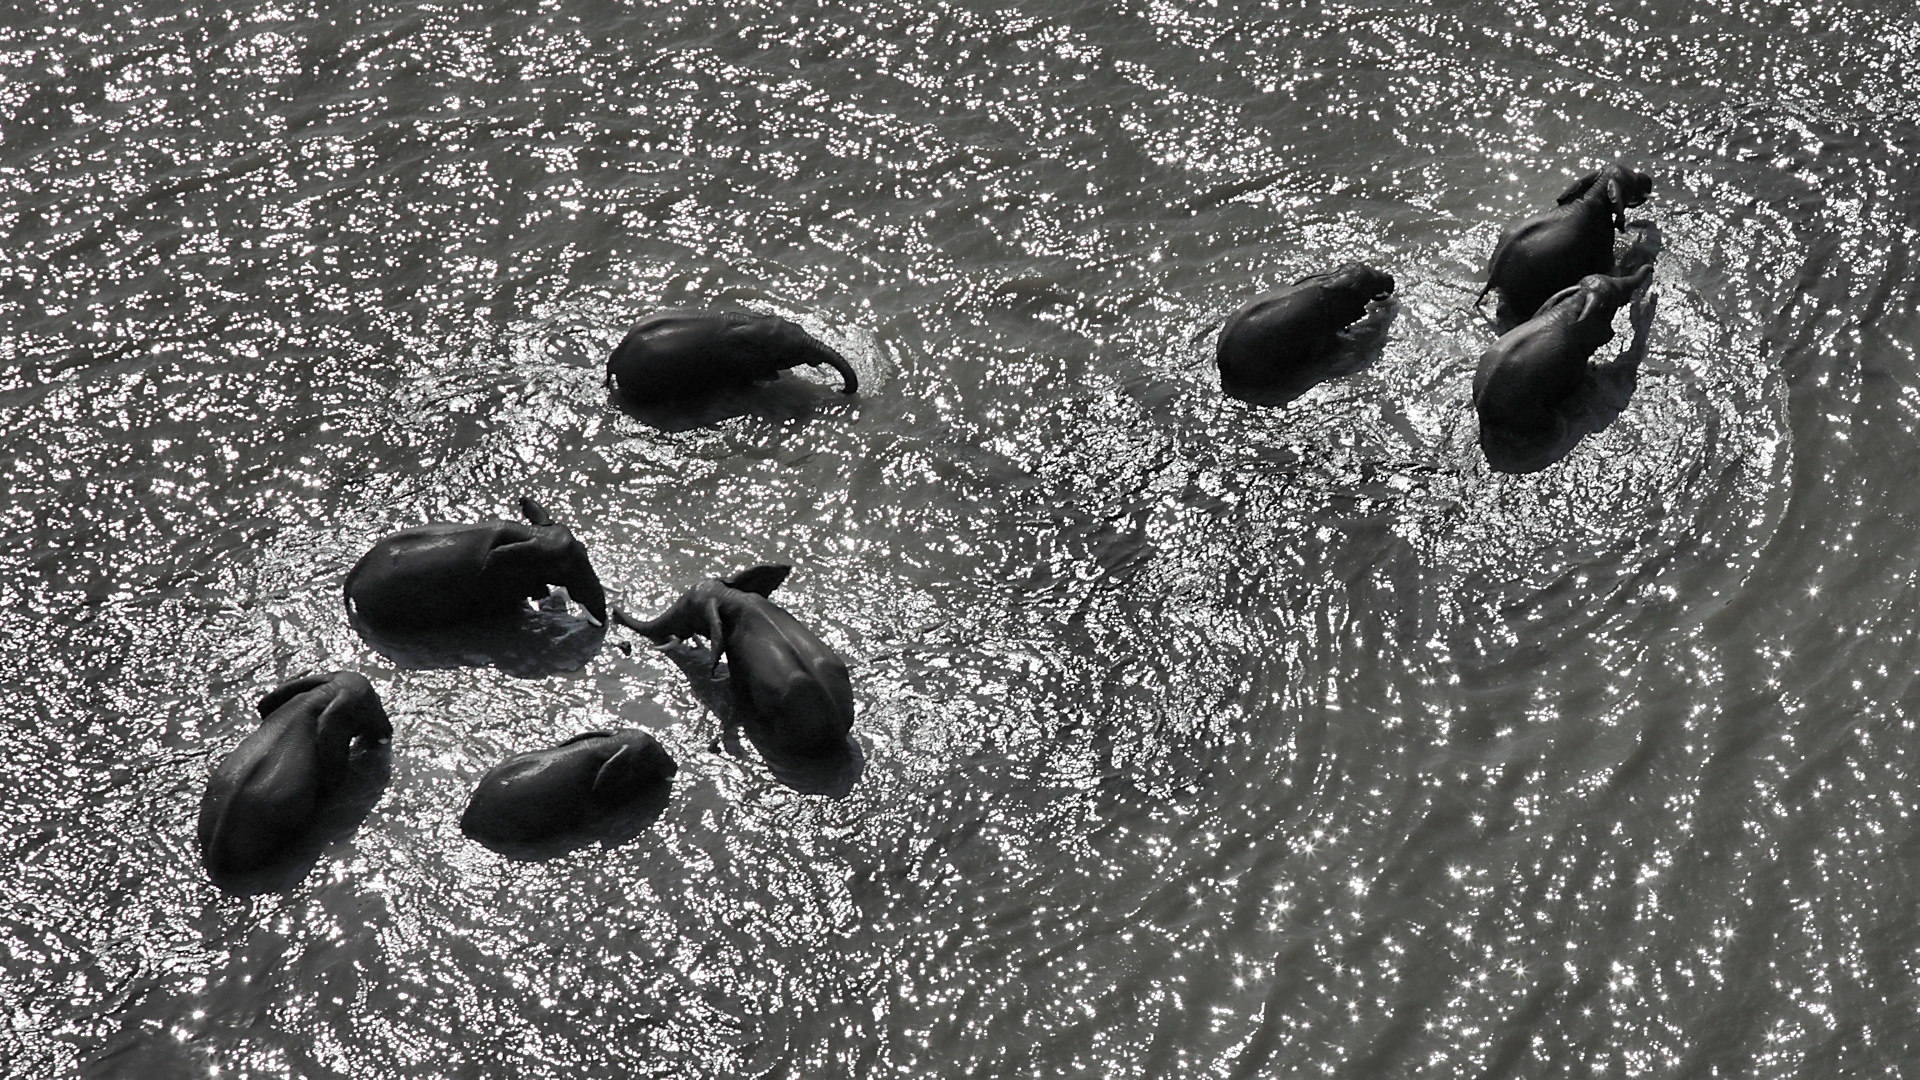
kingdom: Animalia
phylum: Chordata
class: Mammalia
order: Proboscidea
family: Elephantidae
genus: Loxodonta
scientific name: Loxodonta africana
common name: African elephant
